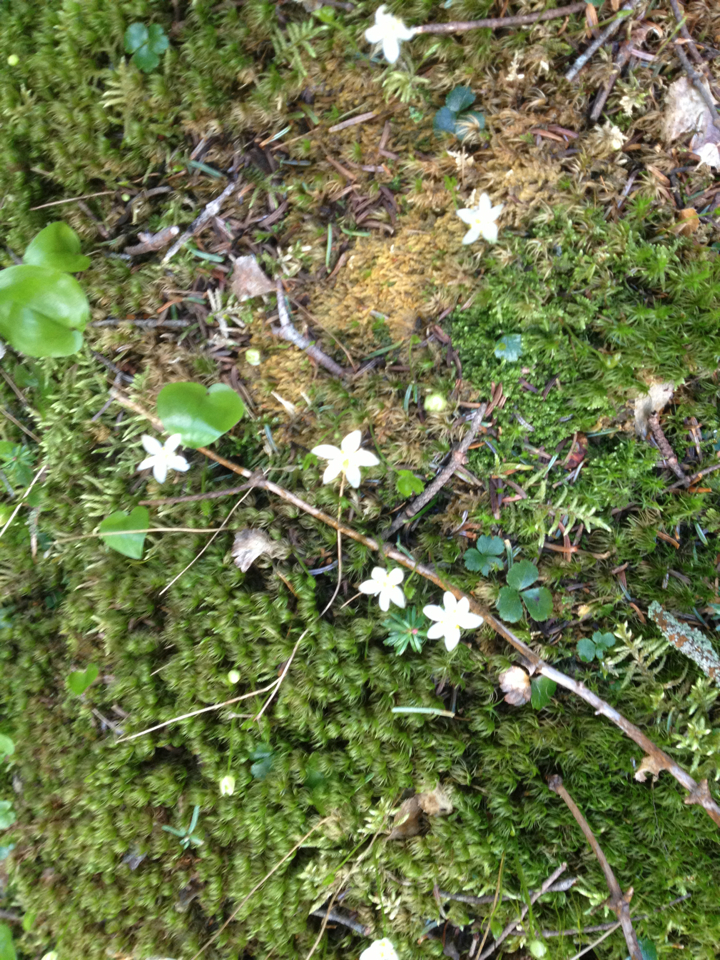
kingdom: Plantae
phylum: Tracheophyta
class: Magnoliopsida
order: Ranunculales
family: Ranunculaceae
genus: Coptis
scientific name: Coptis trifolia
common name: Canker-root
